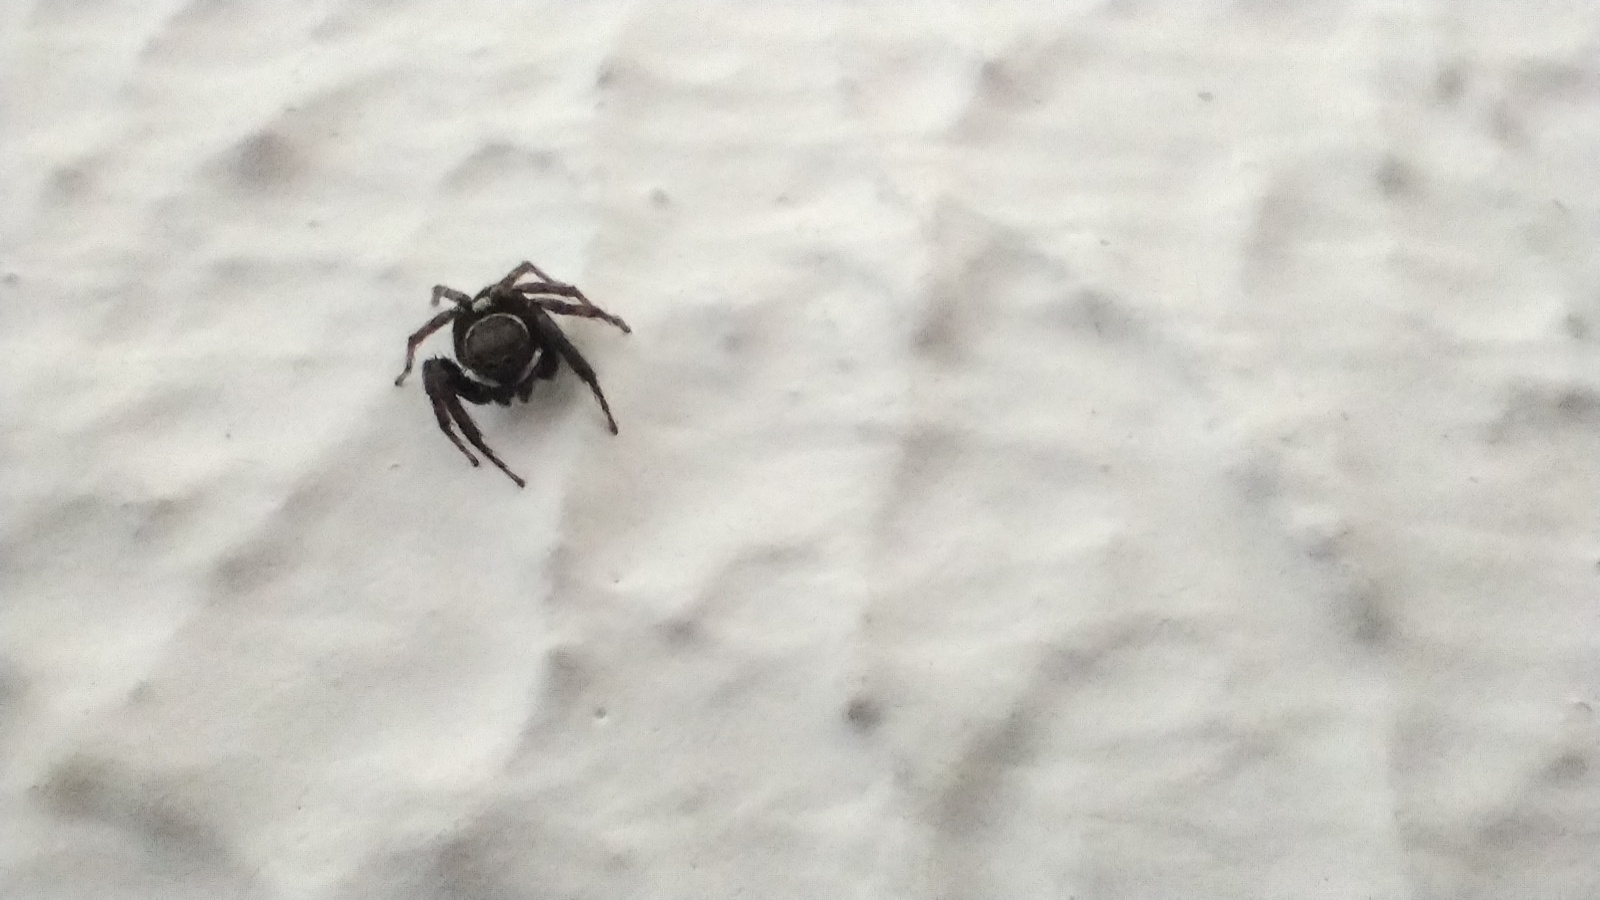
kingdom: Animalia
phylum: Arthropoda
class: Arachnida
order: Araneae
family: Salticidae
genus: Hasarius
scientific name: Hasarius adansoni
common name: Jumping spider
